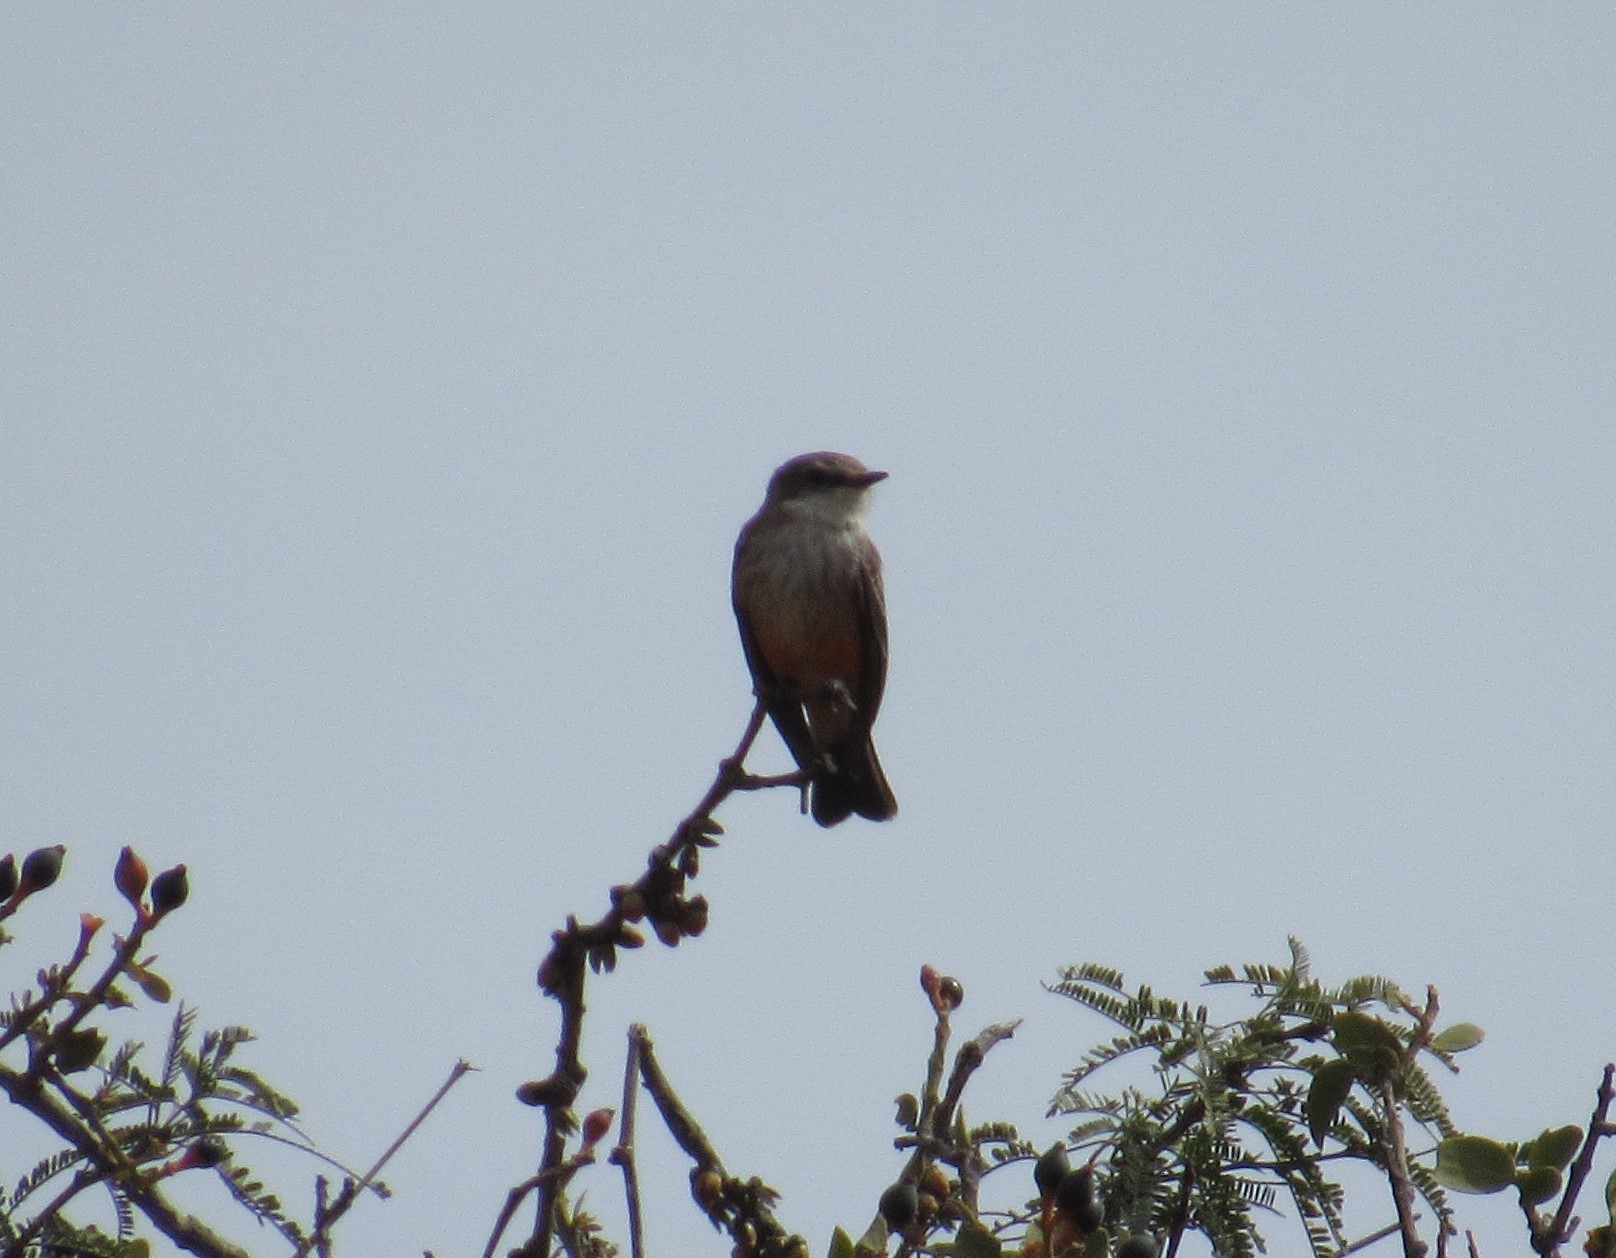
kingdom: Animalia
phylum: Chordata
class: Aves
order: Passeriformes
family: Tyrannidae
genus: Pyrocephalus
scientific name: Pyrocephalus rubinus
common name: Vermilion flycatcher
